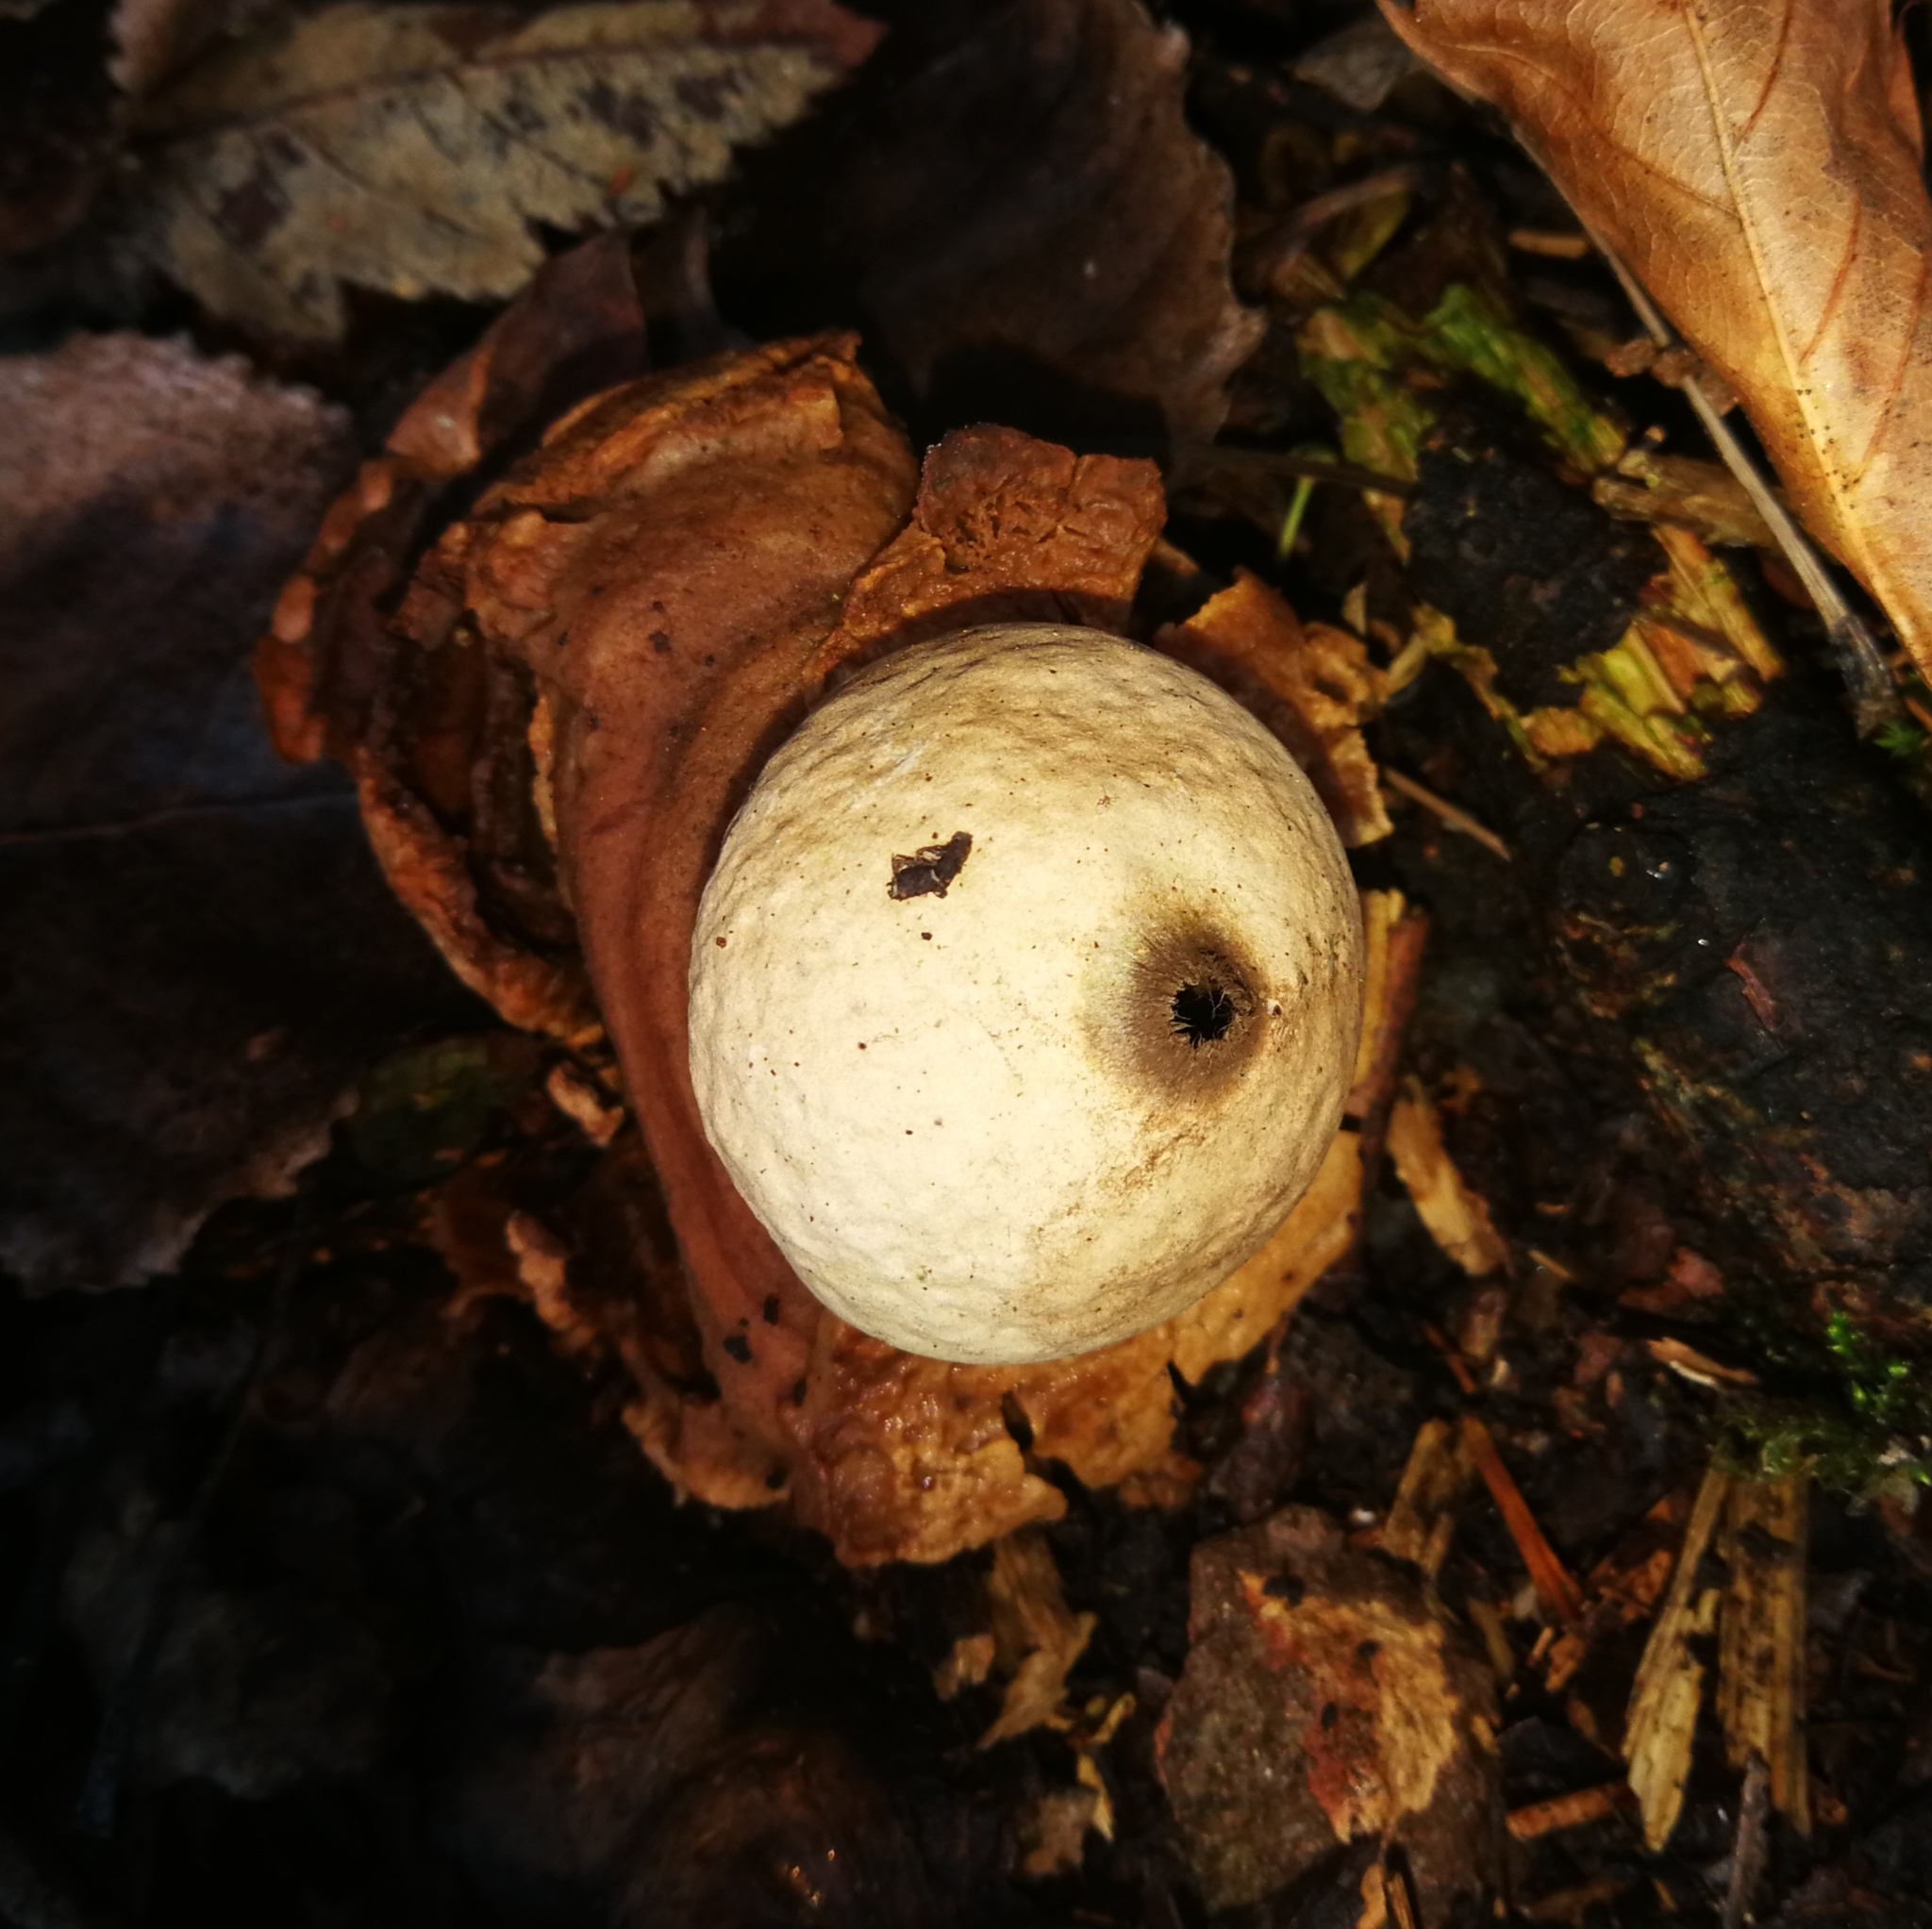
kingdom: Fungi
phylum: Basidiomycota
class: Agaricomycetes
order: Geastrales
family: Geastraceae
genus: Geastrum
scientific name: Geastrum triplex
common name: Collared earthstar
